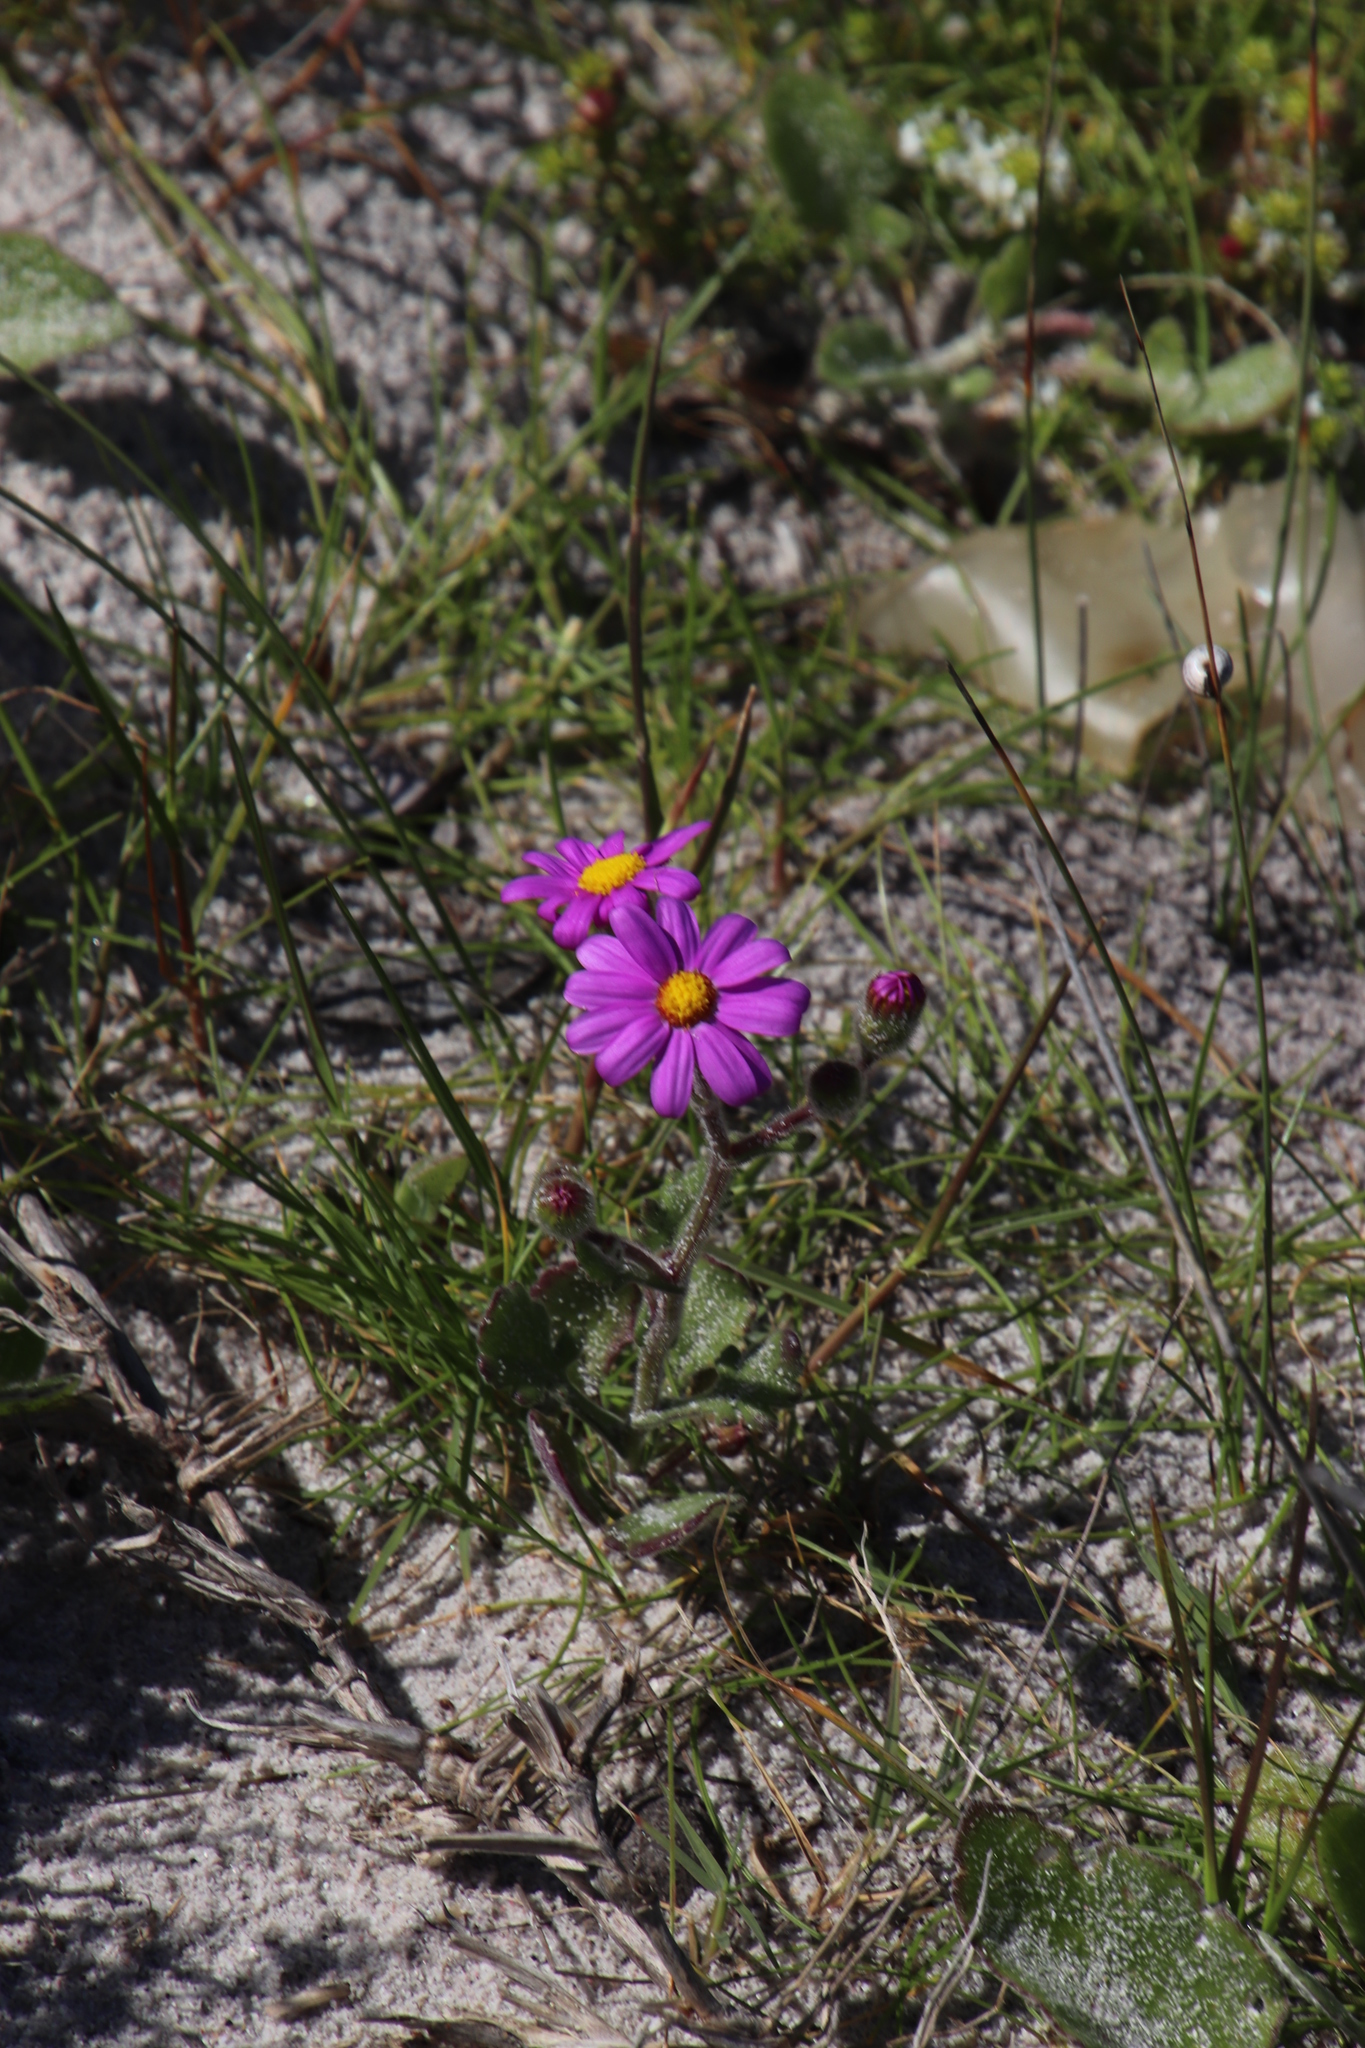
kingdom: Plantae
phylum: Tracheophyta
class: Magnoliopsida
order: Asterales
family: Asteraceae
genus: Senecio
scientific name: Senecio arenarius
